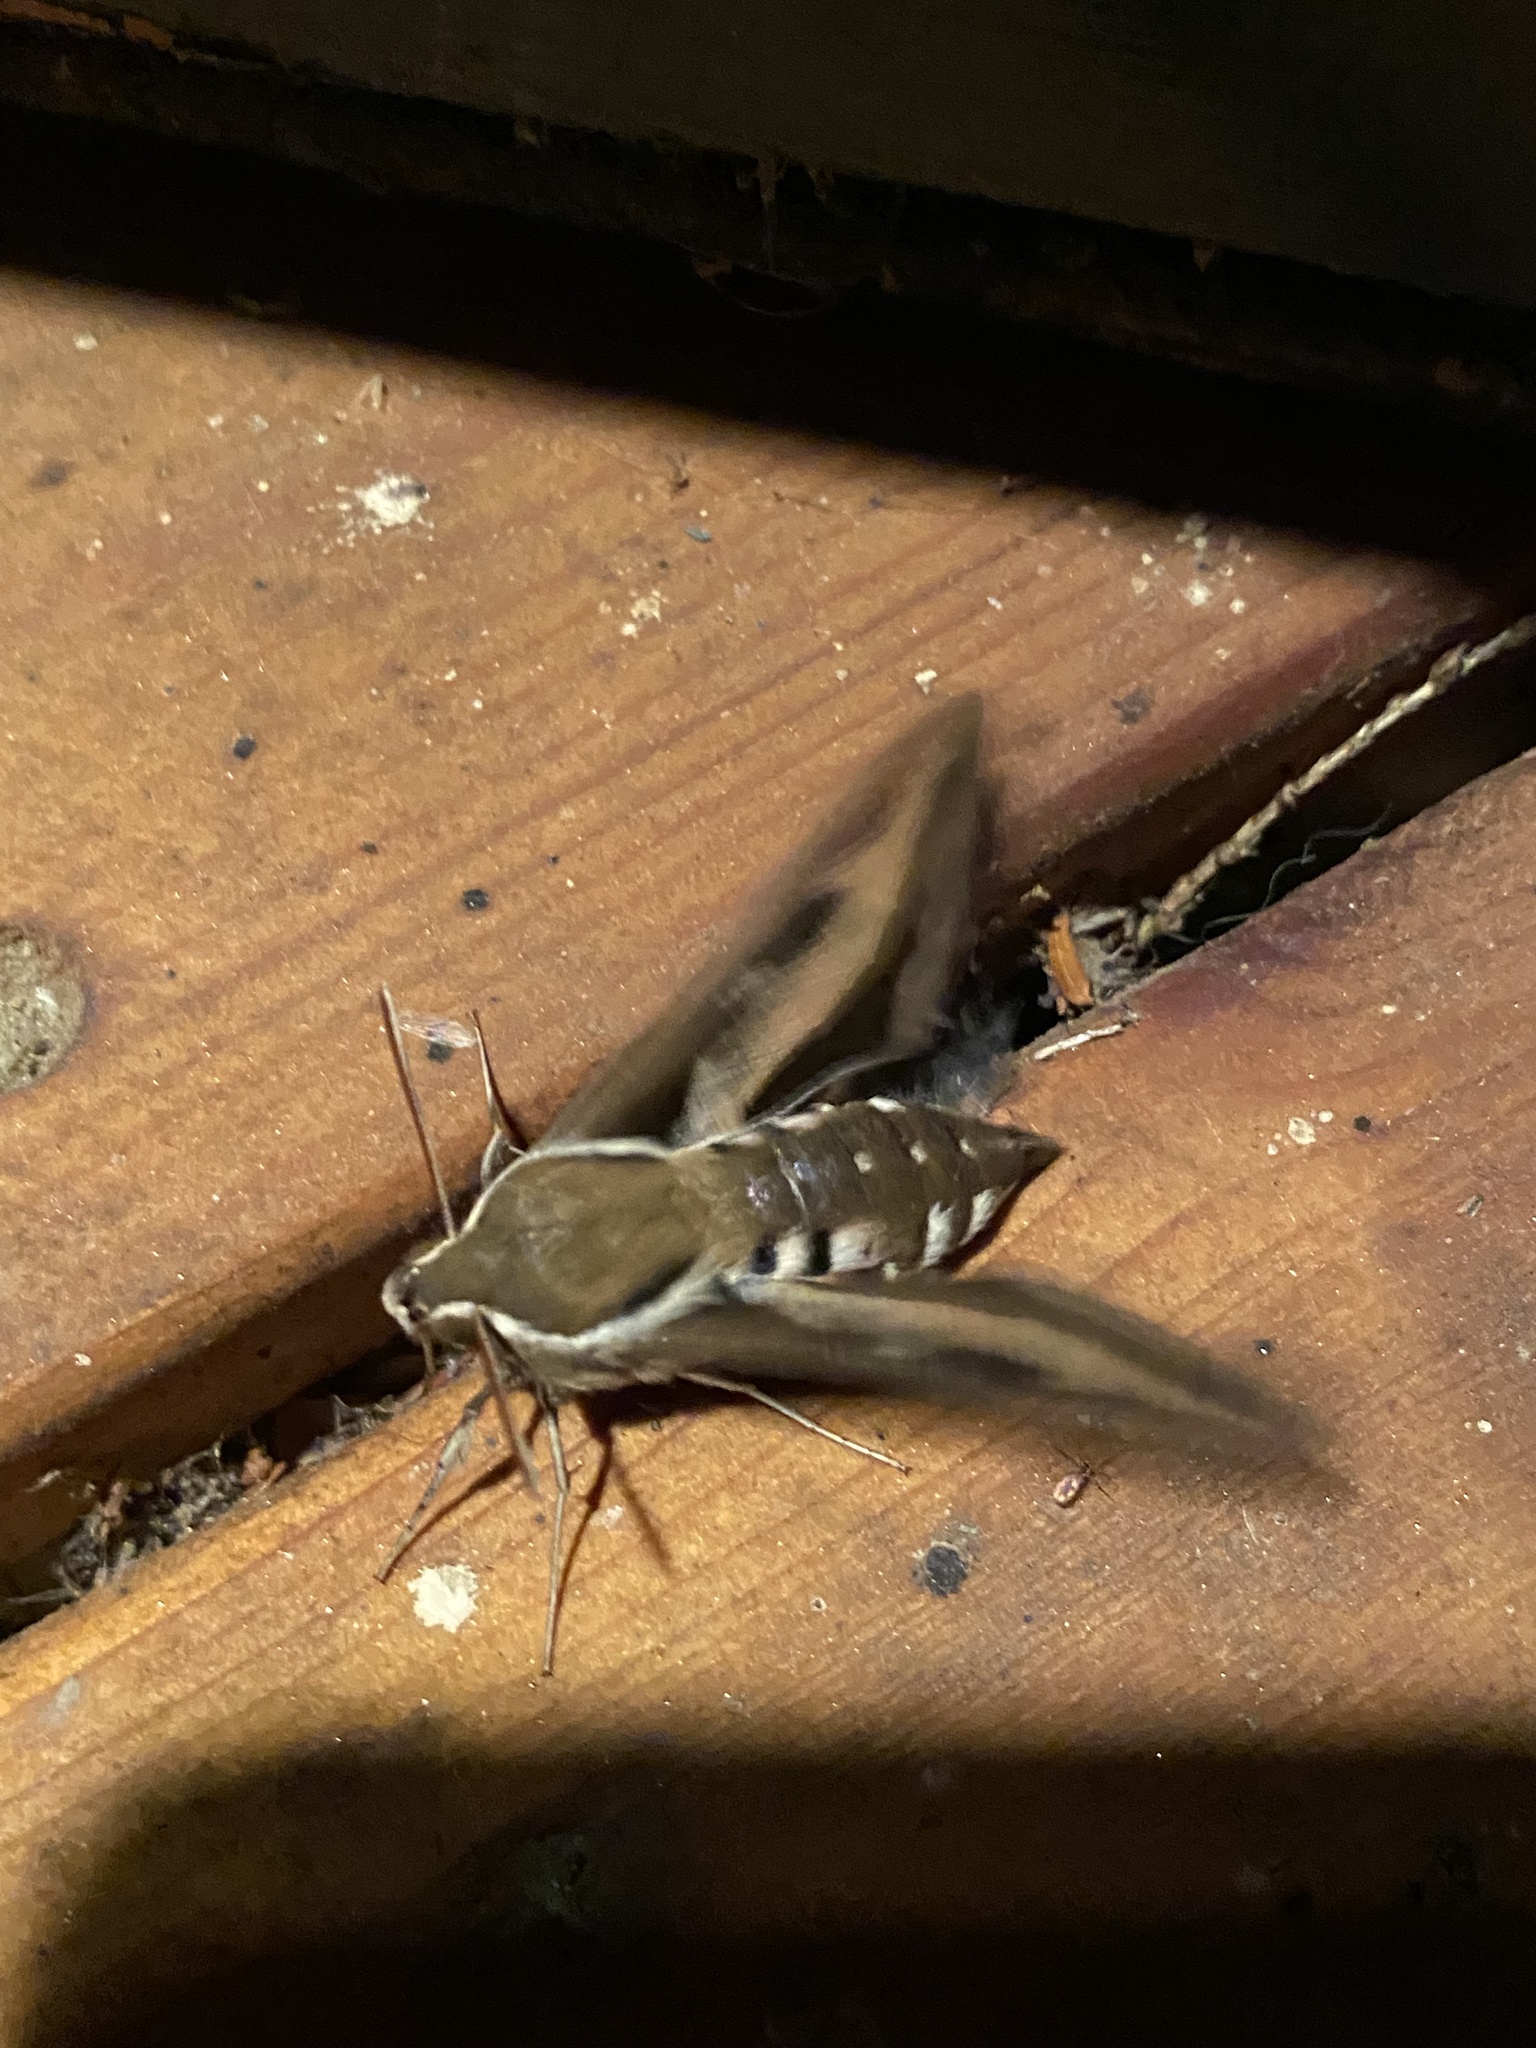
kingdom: Animalia
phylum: Arthropoda
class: Insecta
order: Lepidoptera
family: Sphingidae
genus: Hyles
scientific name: Hyles gallii
